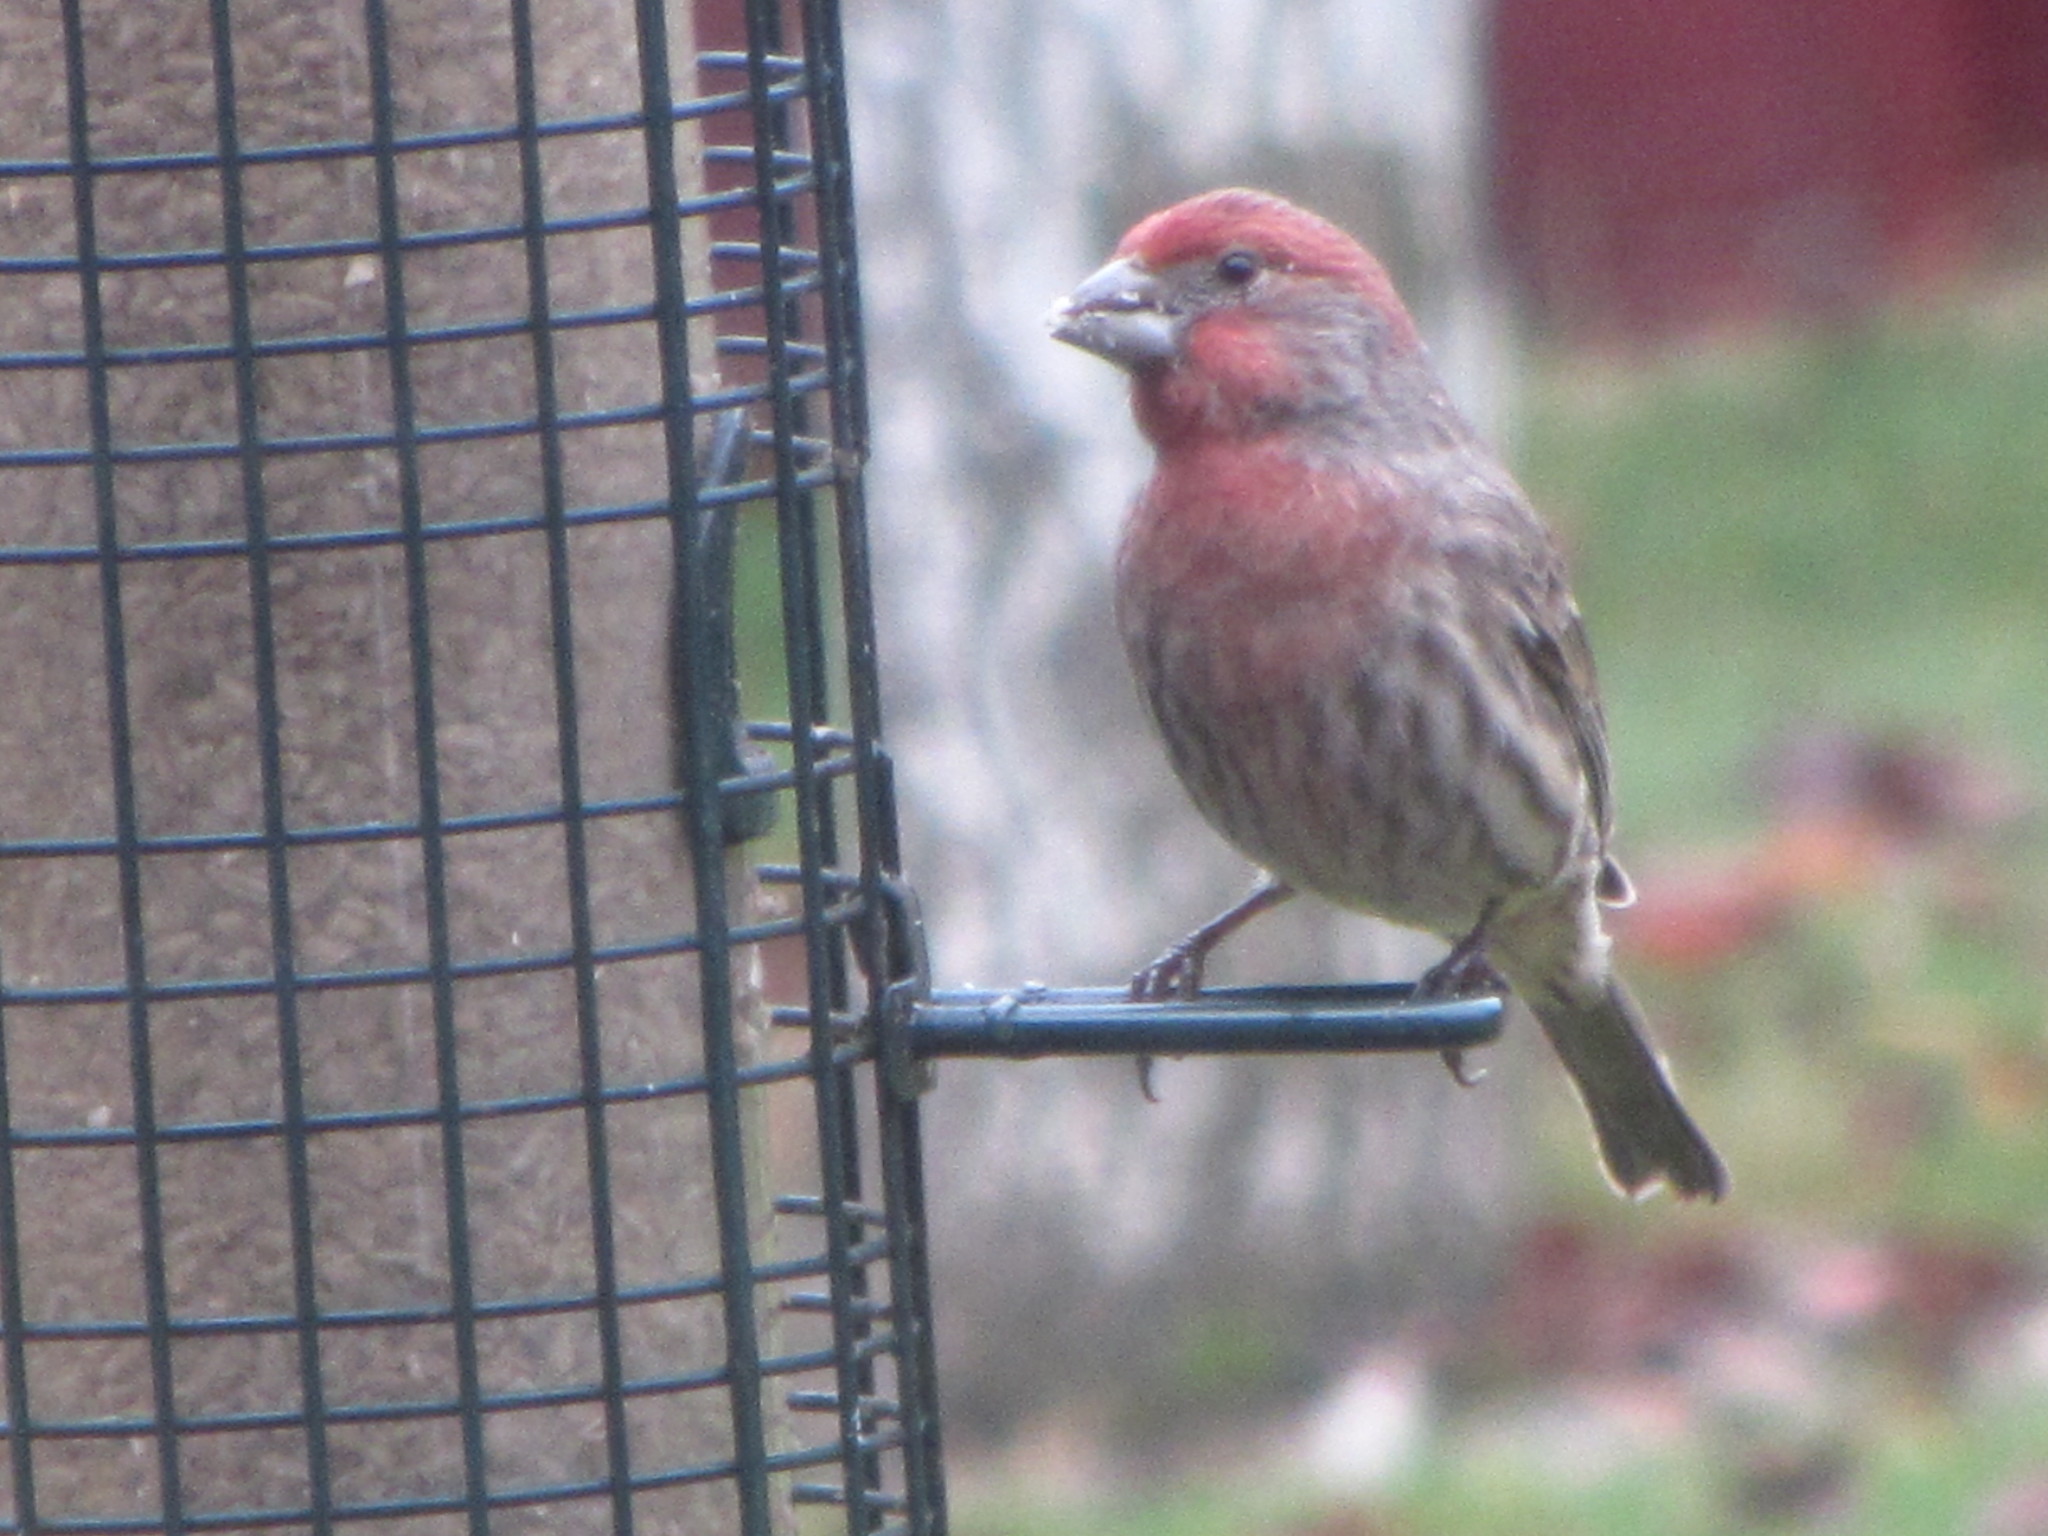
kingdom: Animalia
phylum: Chordata
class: Aves
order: Passeriformes
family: Fringillidae
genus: Haemorhous
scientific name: Haemorhous mexicanus
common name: House finch
